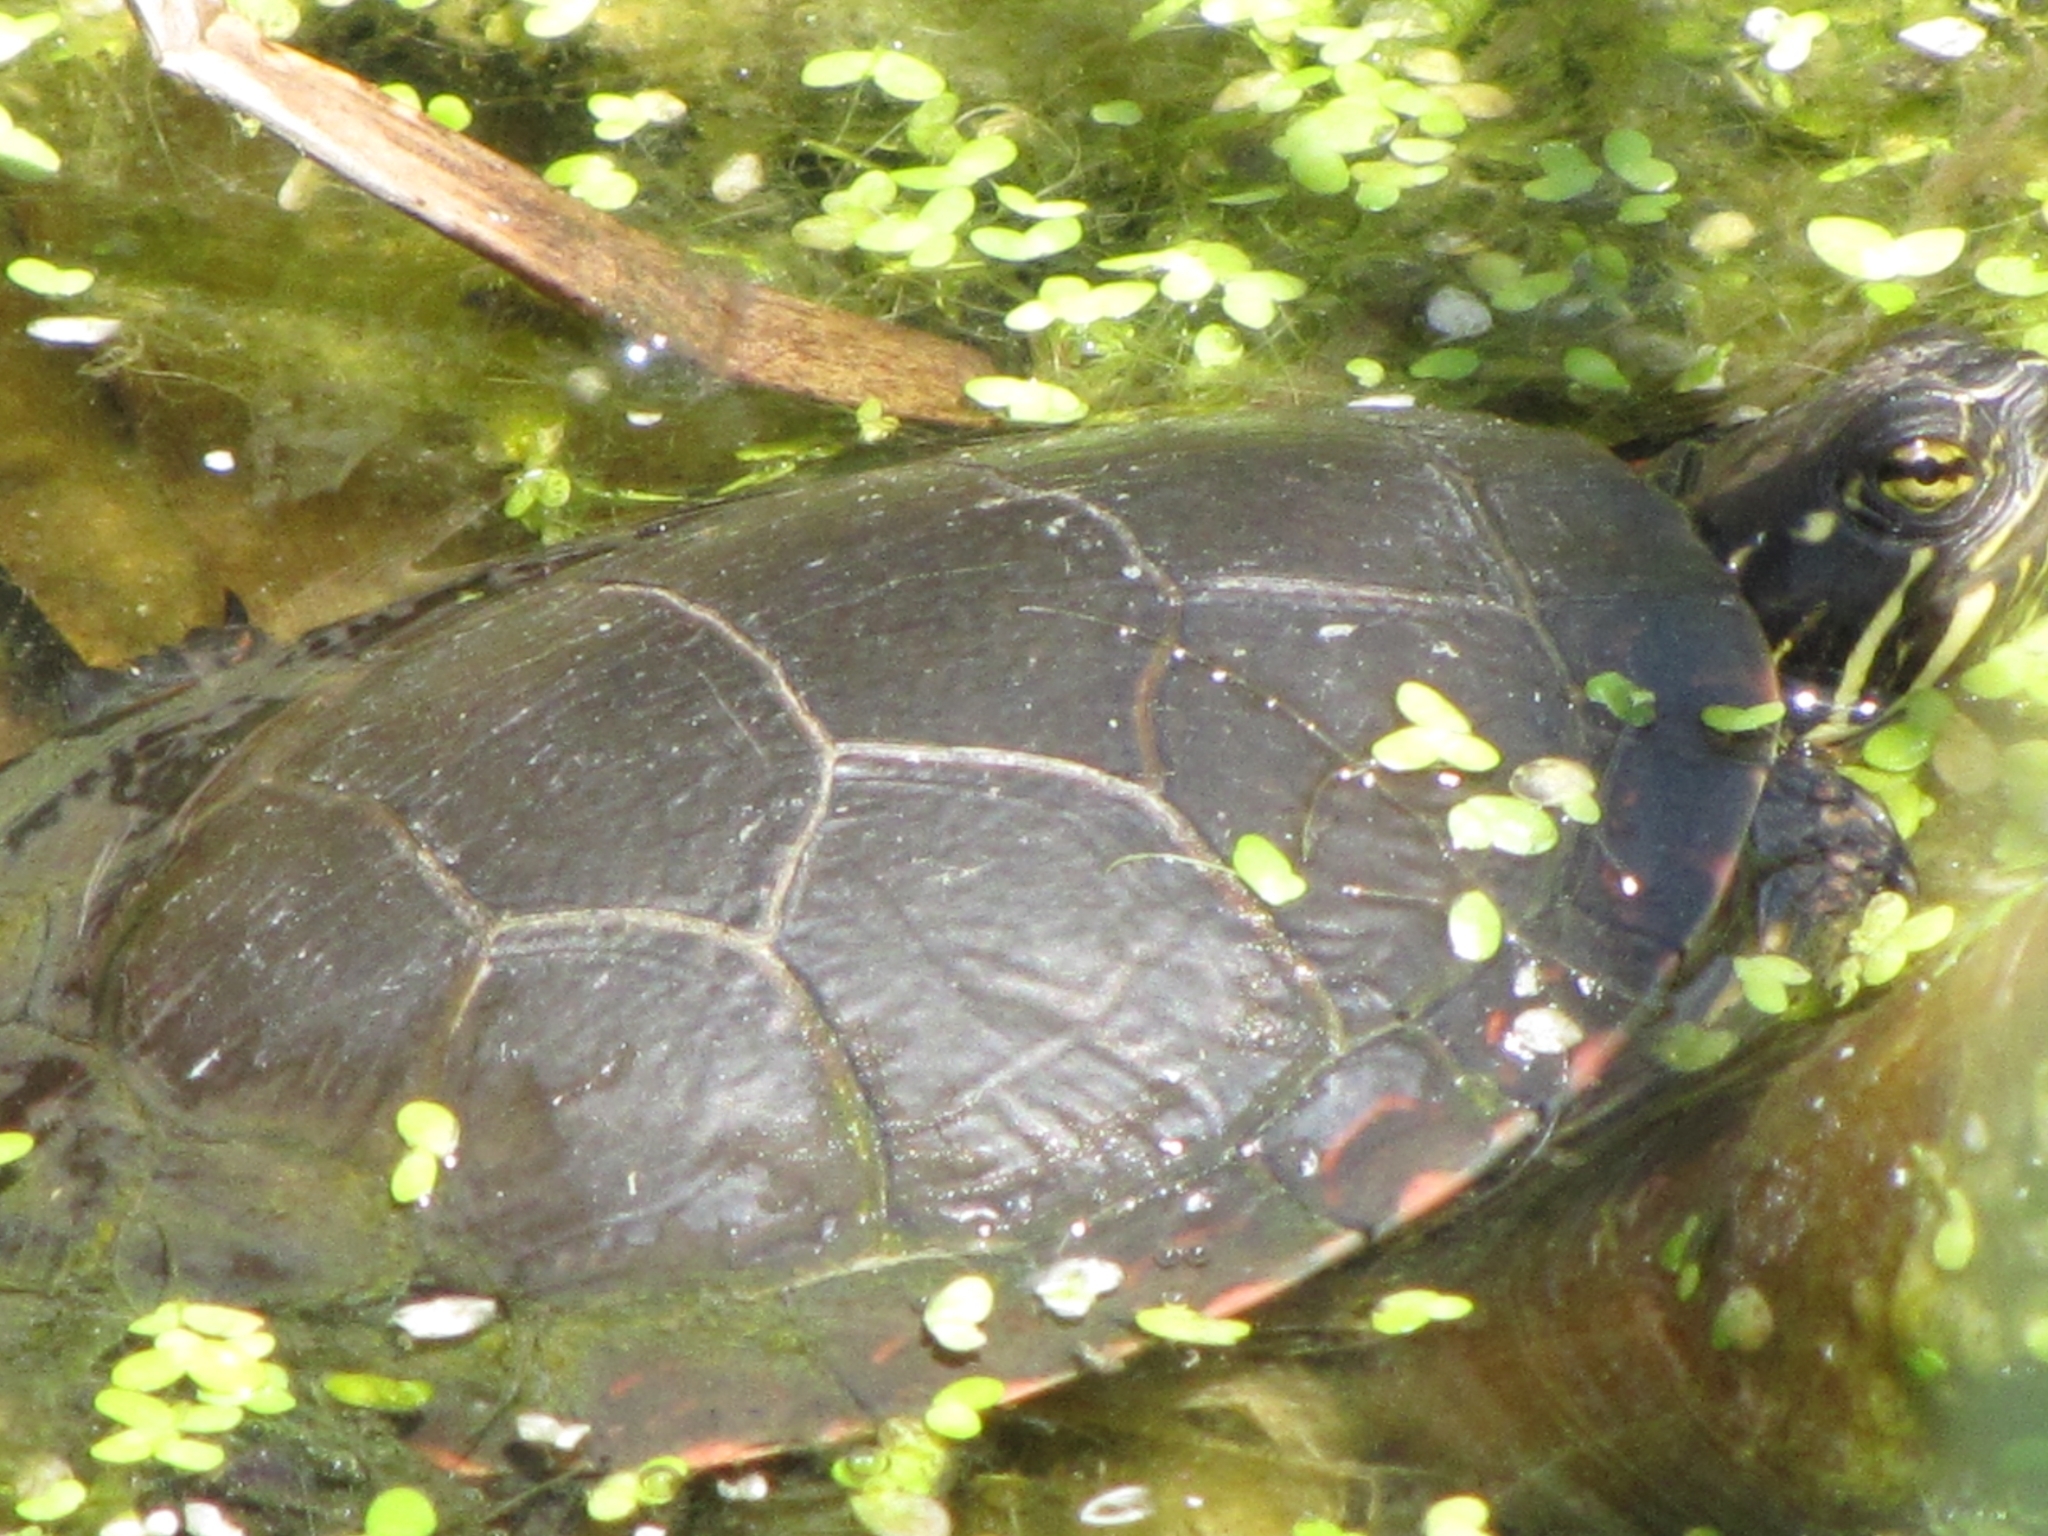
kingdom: Animalia
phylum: Chordata
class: Testudines
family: Emydidae
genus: Chrysemys
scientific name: Chrysemys picta
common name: Painted turtle
